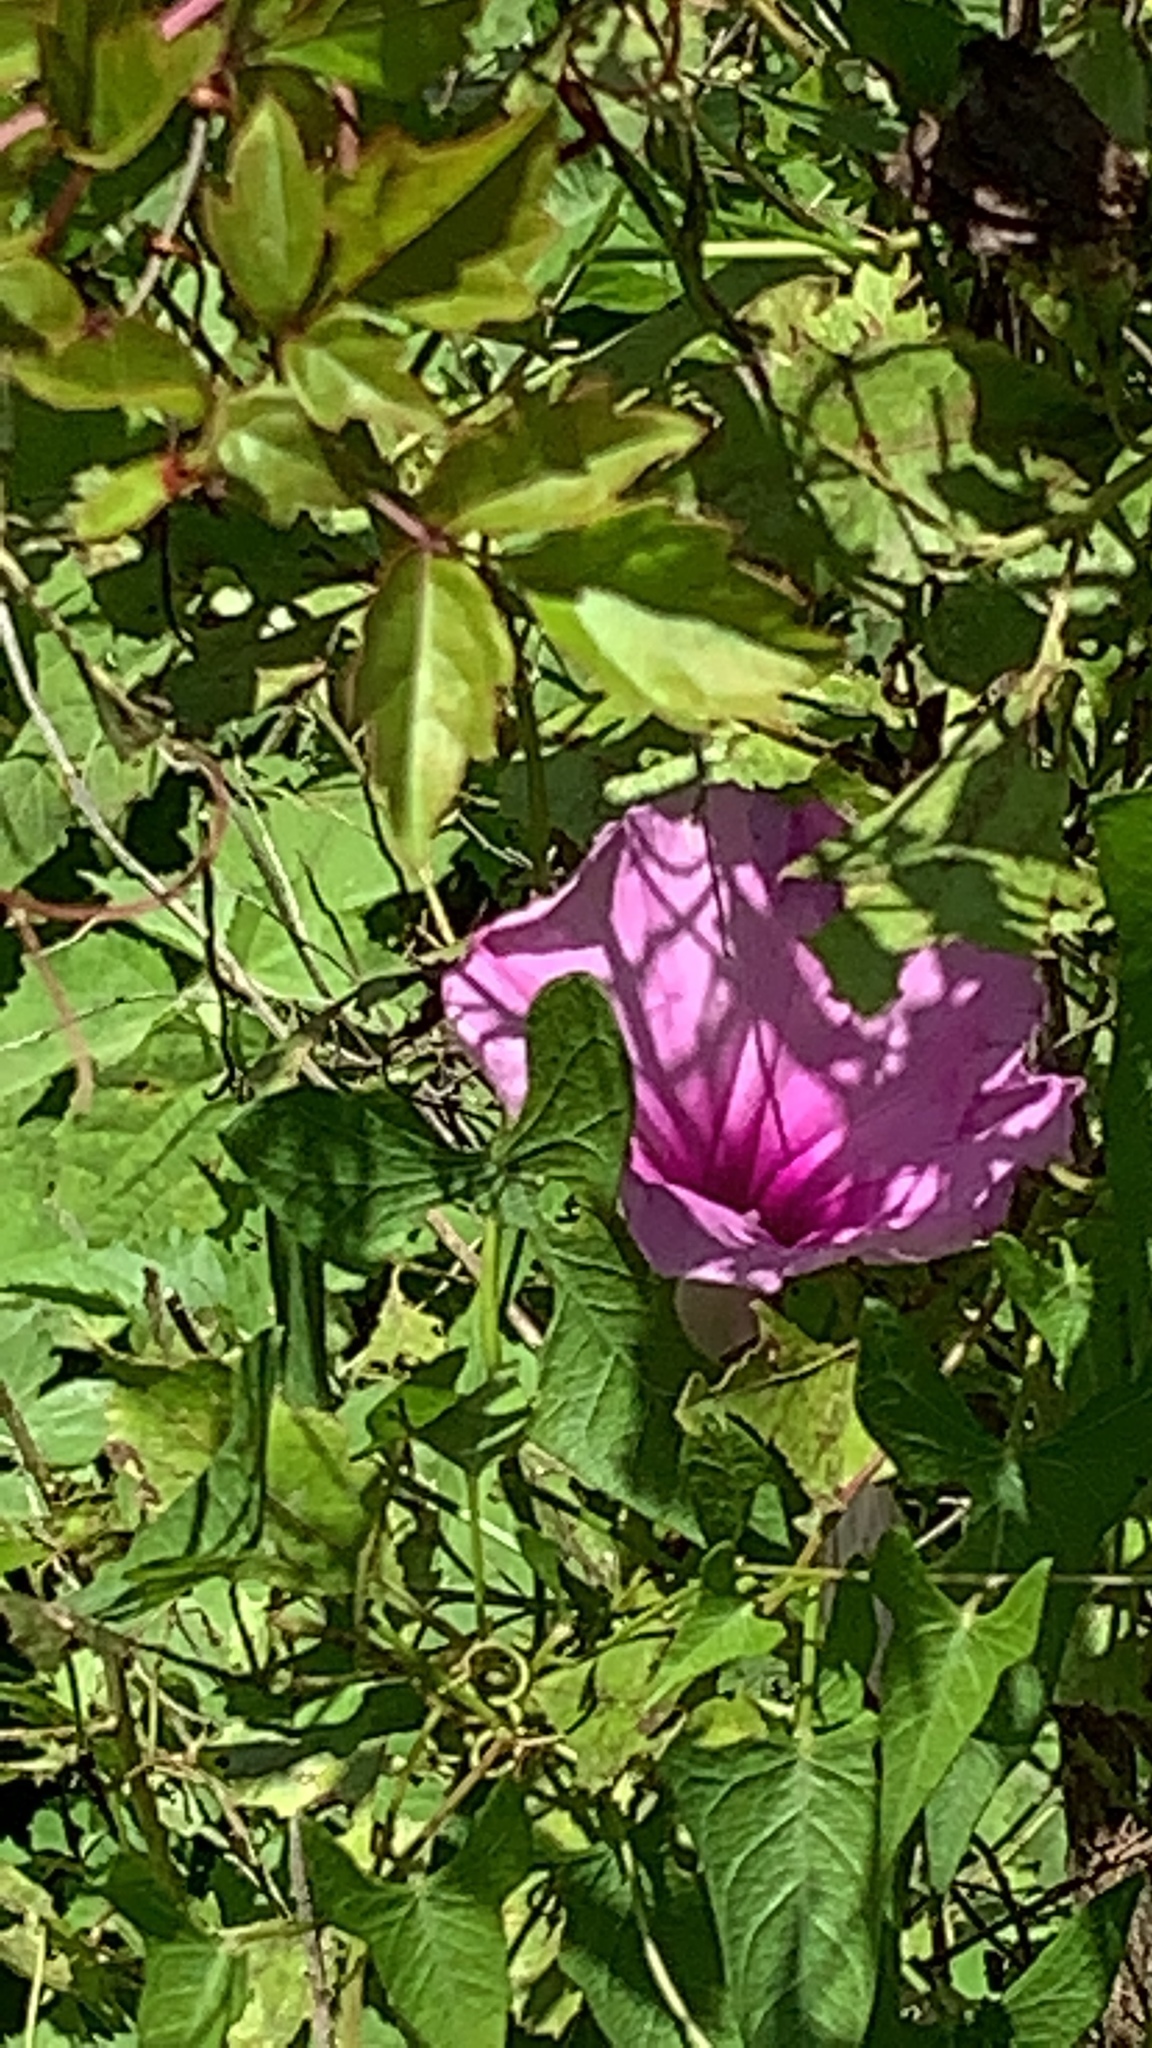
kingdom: Plantae
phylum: Tracheophyta
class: Magnoliopsida
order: Solanales
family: Convolvulaceae
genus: Ipomoea
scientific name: Ipomoea sagittata
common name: Saltmarsh morning glory
